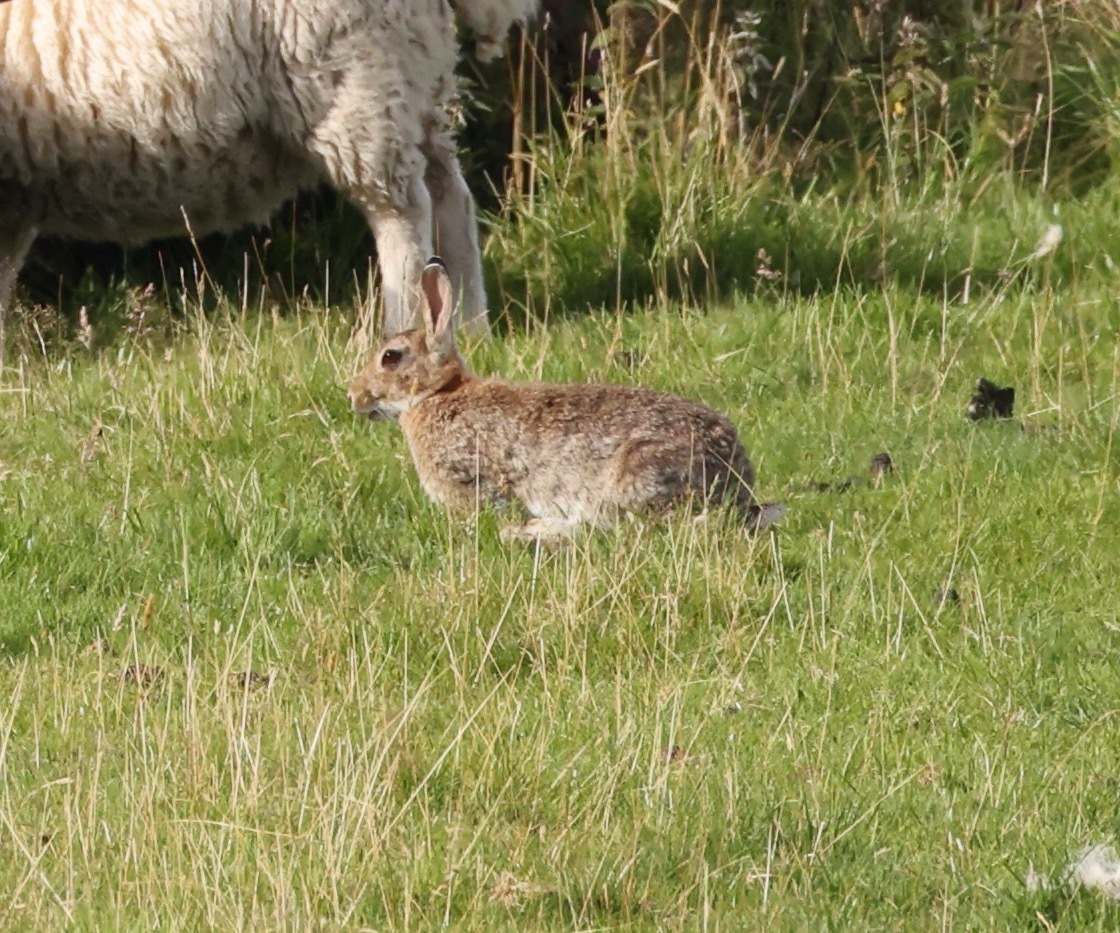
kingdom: Animalia
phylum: Chordata
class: Mammalia
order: Lagomorpha
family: Leporidae
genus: Oryctolagus
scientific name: Oryctolagus cuniculus
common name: European rabbit
